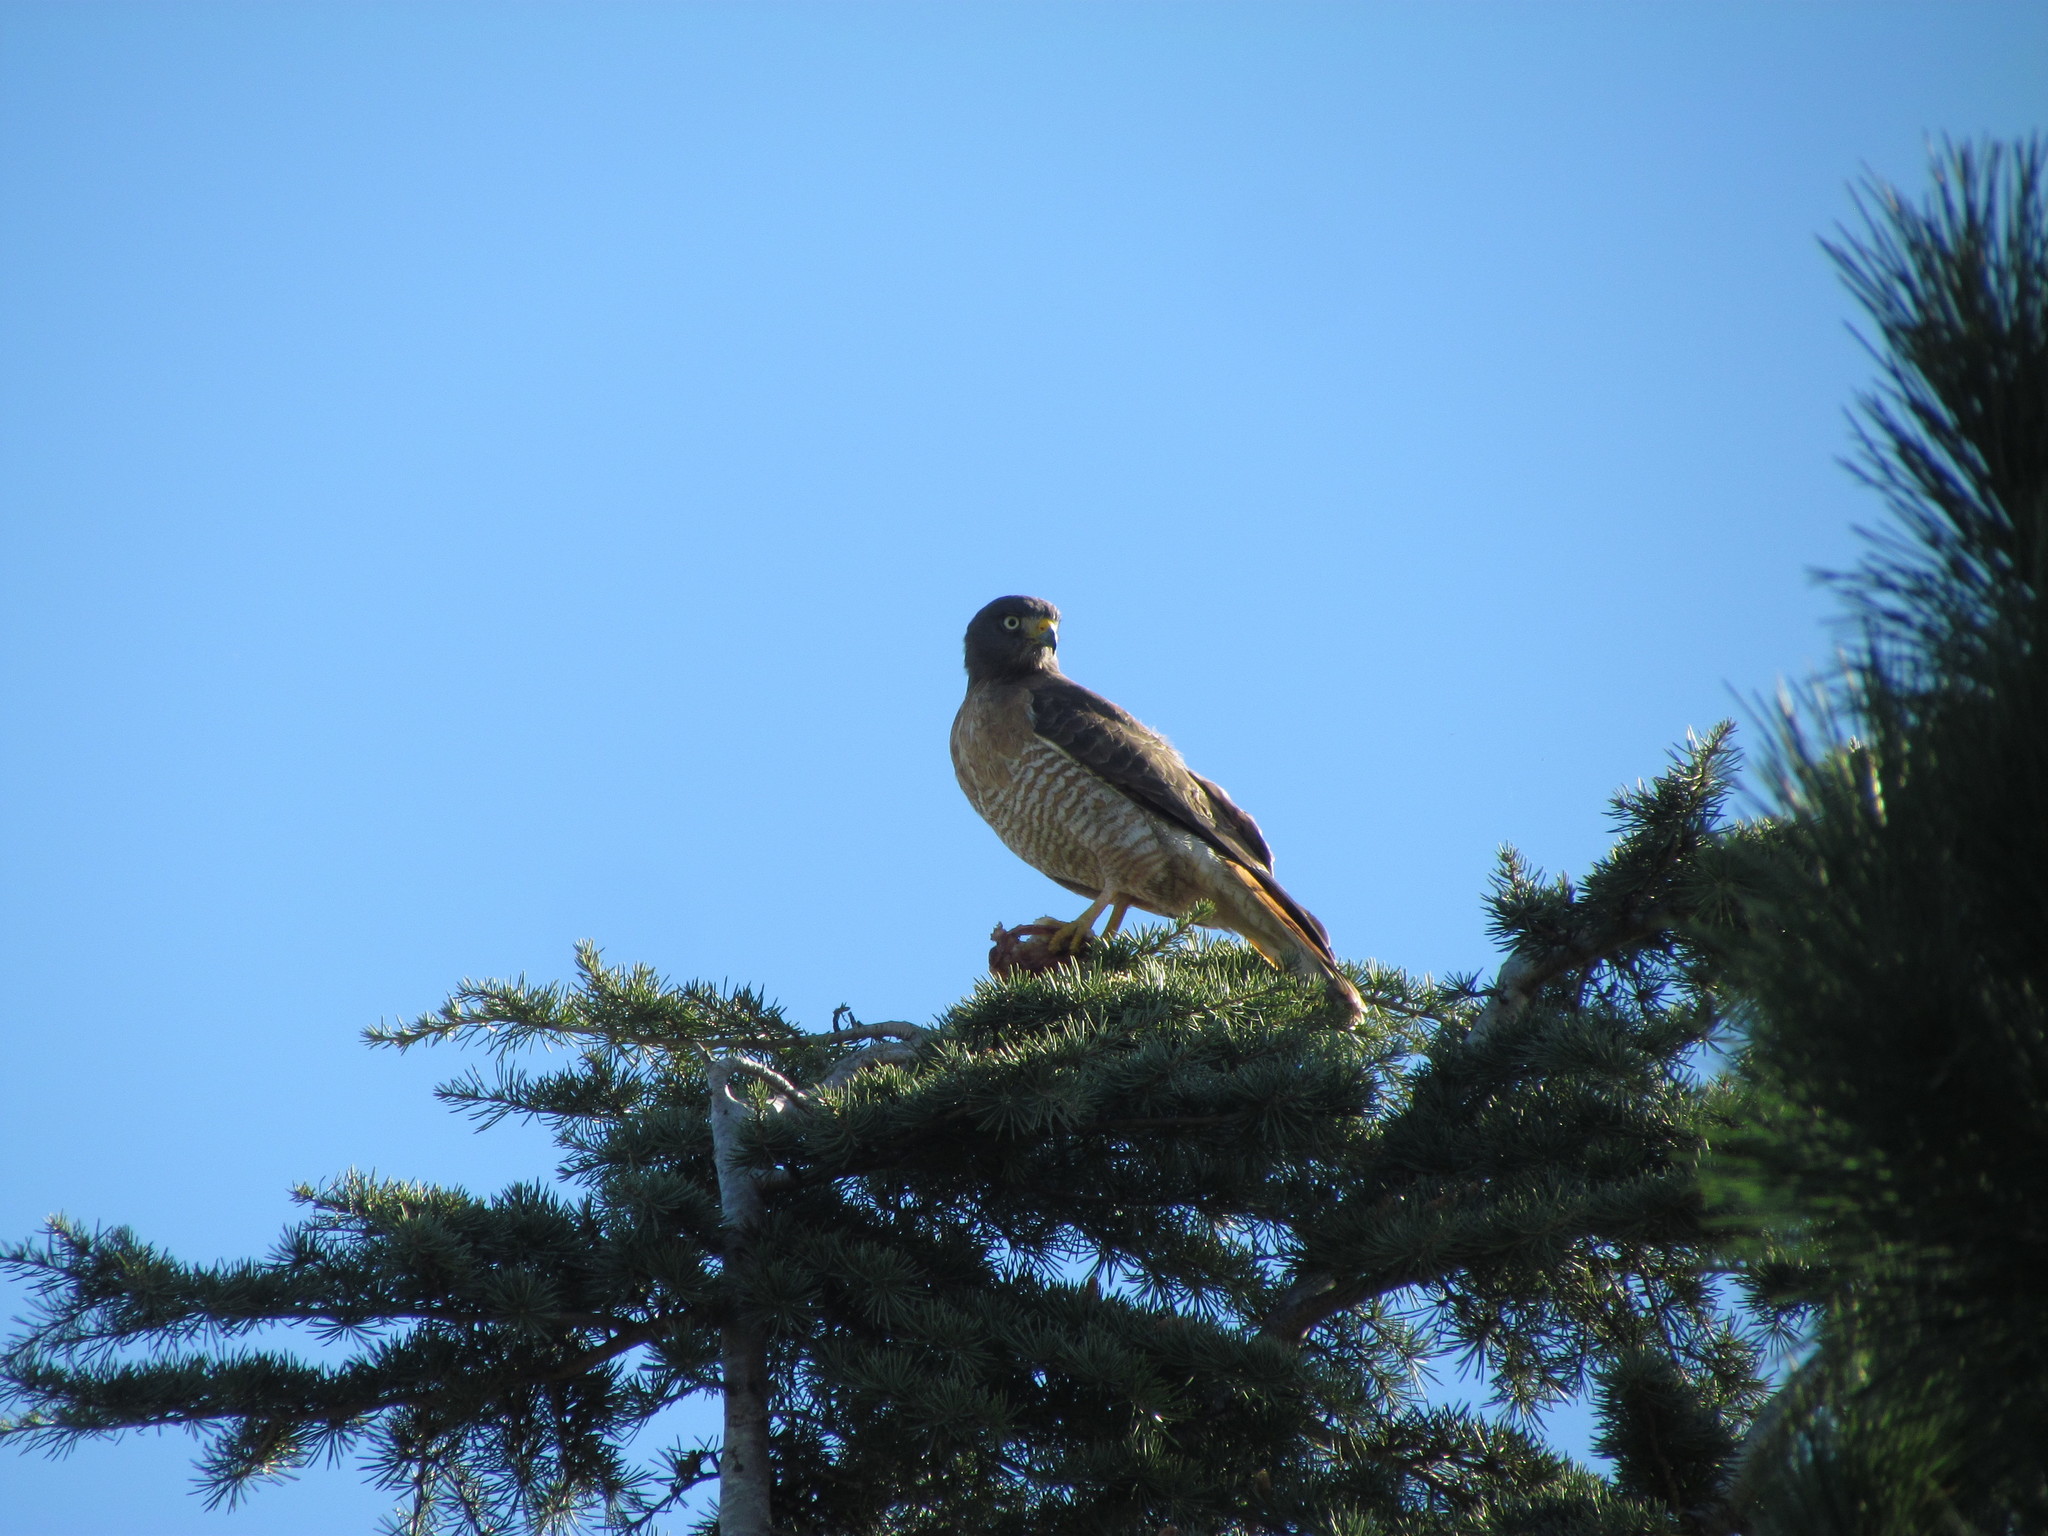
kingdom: Animalia
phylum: Chordata
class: Aves
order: Accipitriformes
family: Accipitridae
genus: Rupornis
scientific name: Rupornis magnirostris
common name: Roadside hawk
